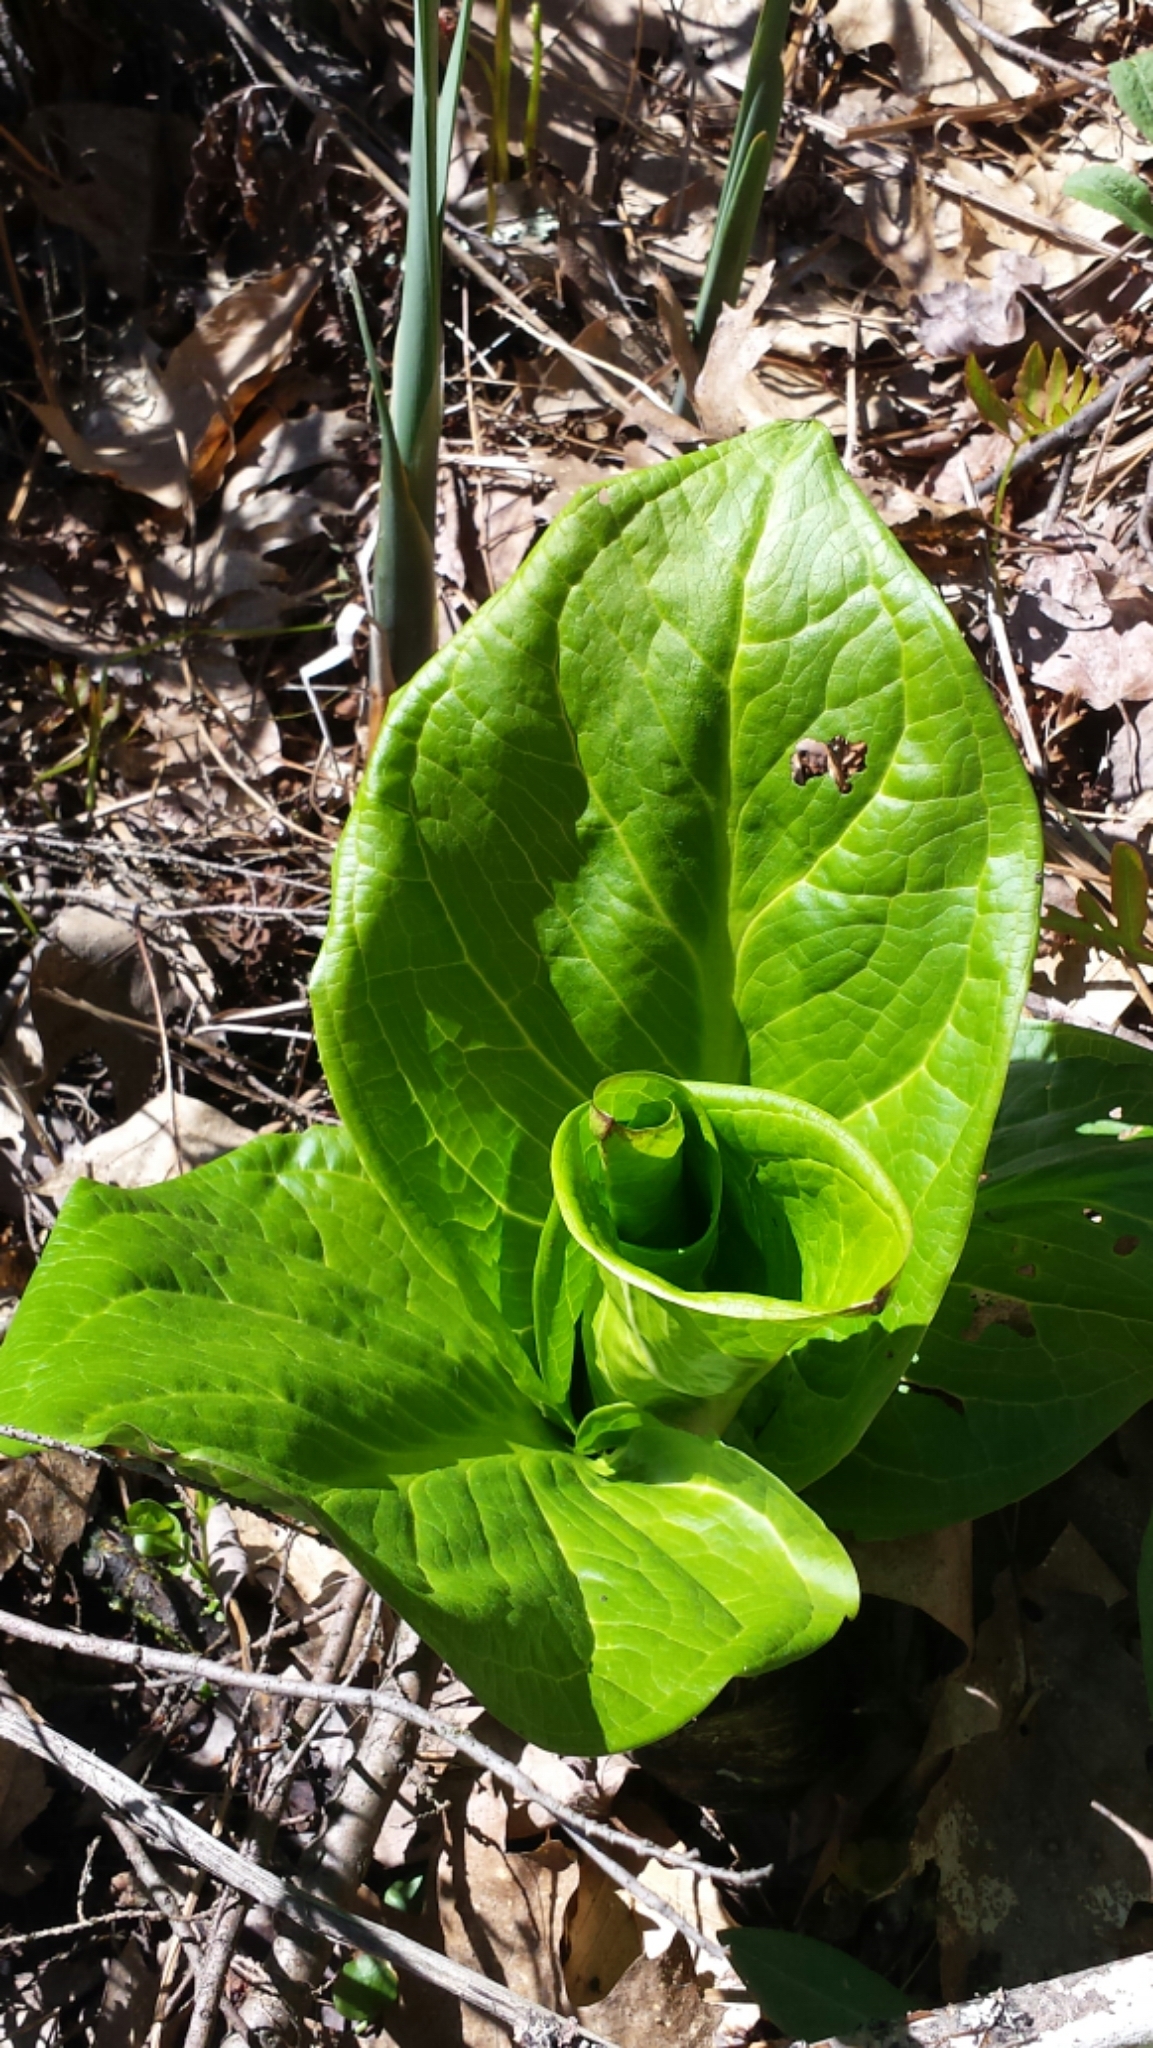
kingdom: Plantae
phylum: Tracheophyta
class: Liliopsida
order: Alismatales
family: Araceae
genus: Symplocarpus
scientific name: Symplocarpus foetidus
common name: Eastern skunk cabbage
